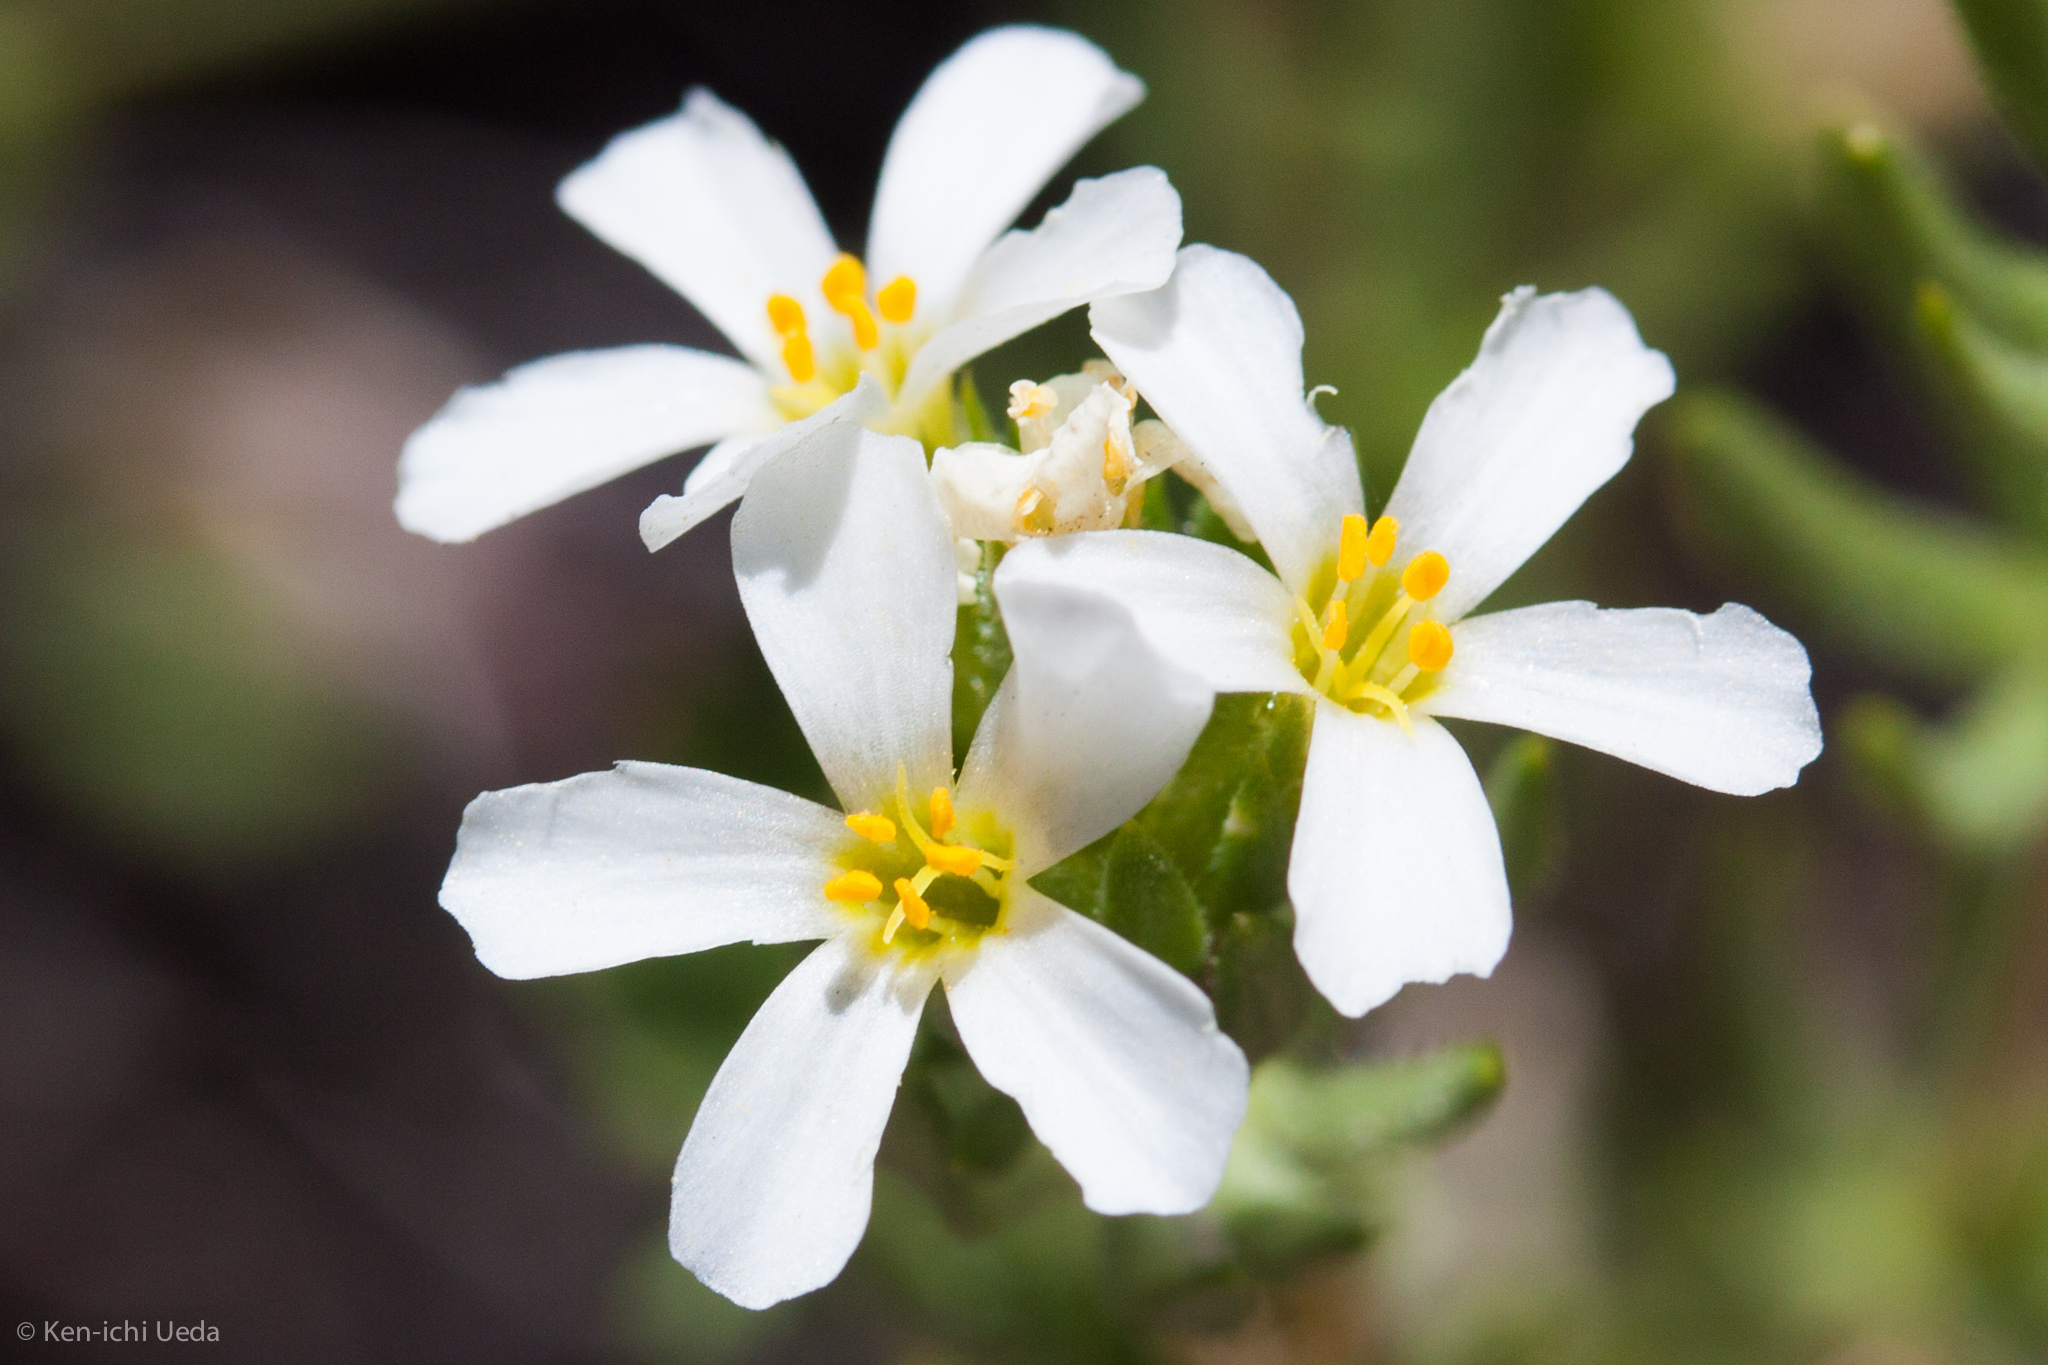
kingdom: Plantae
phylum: Tracheophyta
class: Magnoliopsida
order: Ericales
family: Polemoniaceae
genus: Leptosiphon
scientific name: Leptosiphon nuttallii
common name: Nuttall's linanthus
